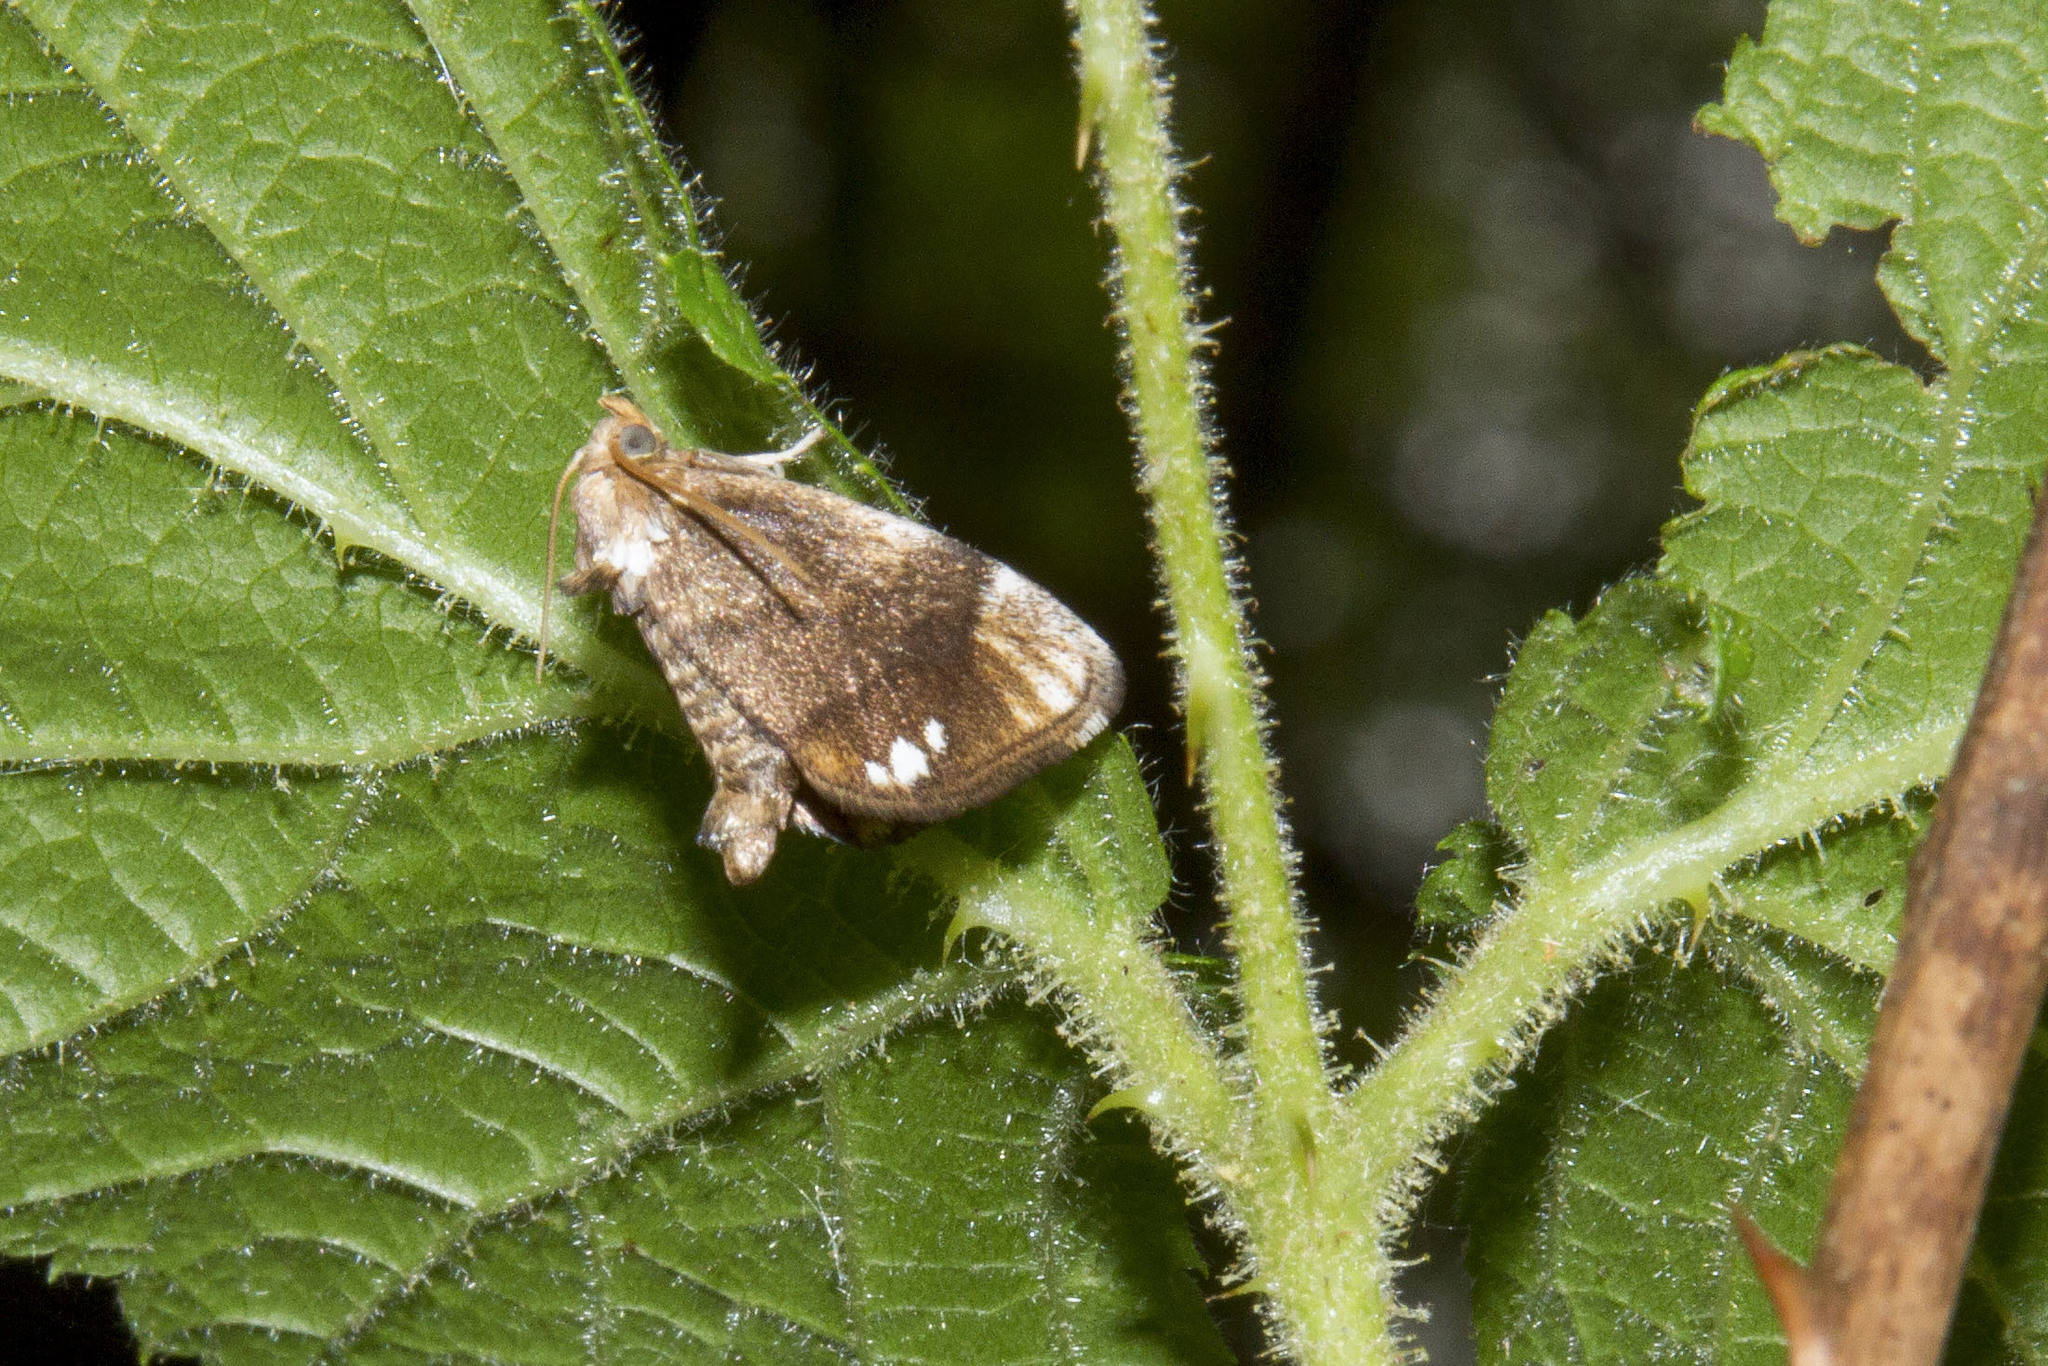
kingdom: Animalia
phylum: Arthropoda
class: Insecta
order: Lepidoptera
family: Limacodidae
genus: Packardia
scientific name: Packardia geminata
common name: Jeweled tailed slug moth
